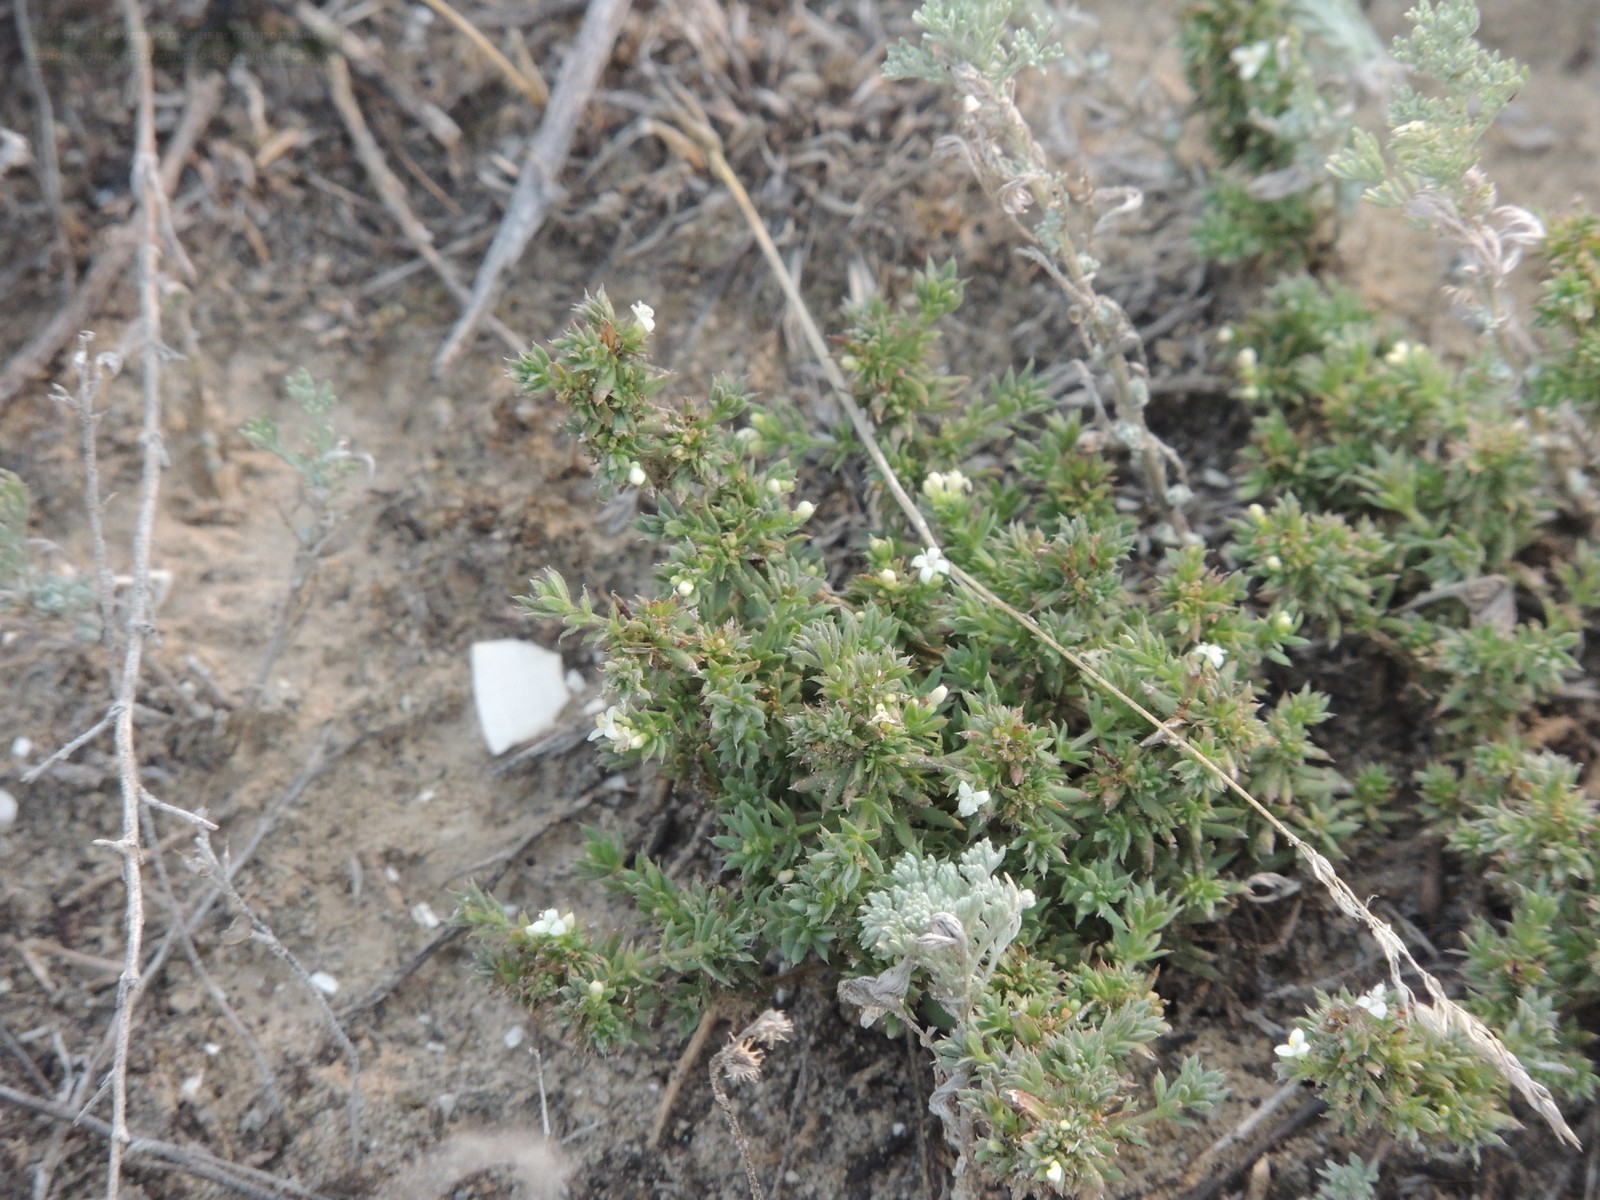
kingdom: Plantae
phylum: Tracheophyta
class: Magnoliopsida
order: Gentianales
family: Rubiaceae
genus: Galium
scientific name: Galium humifusum
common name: Spreading bedstraw
